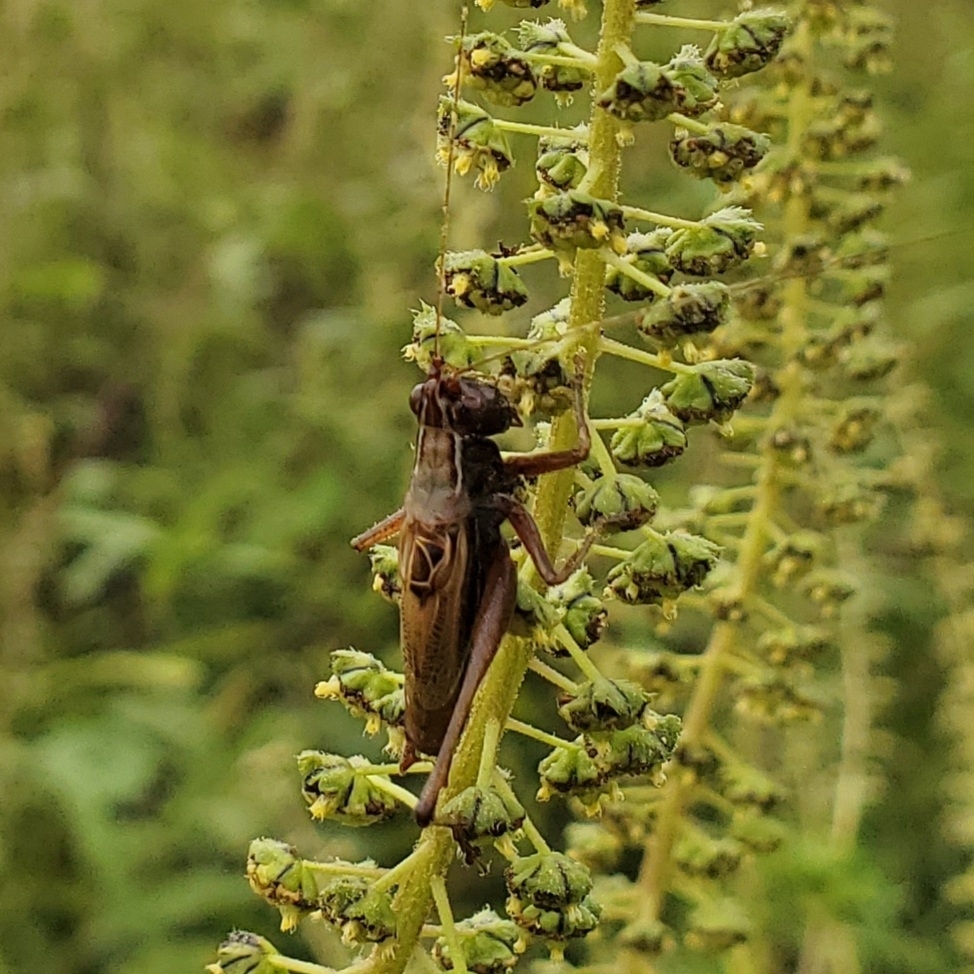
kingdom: Animalia
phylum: Arthropoda
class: Insecta
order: Orthoptera
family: Tettigoniidae
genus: Conocephalus
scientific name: Conocephalus nemoralis
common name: Woodland meadow katydid
